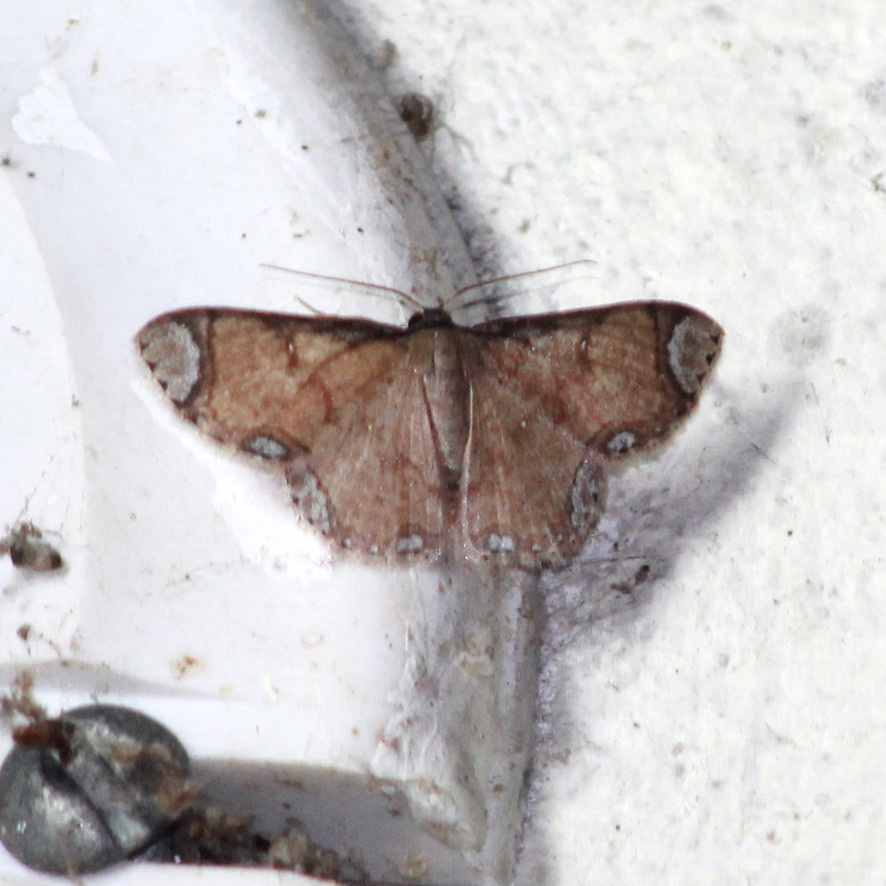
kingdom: Animalia
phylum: Arthropoda
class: Insecta
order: Lepidoptera
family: Geometridae
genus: Lipotaxia
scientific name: Lipotaxia rubicunda
